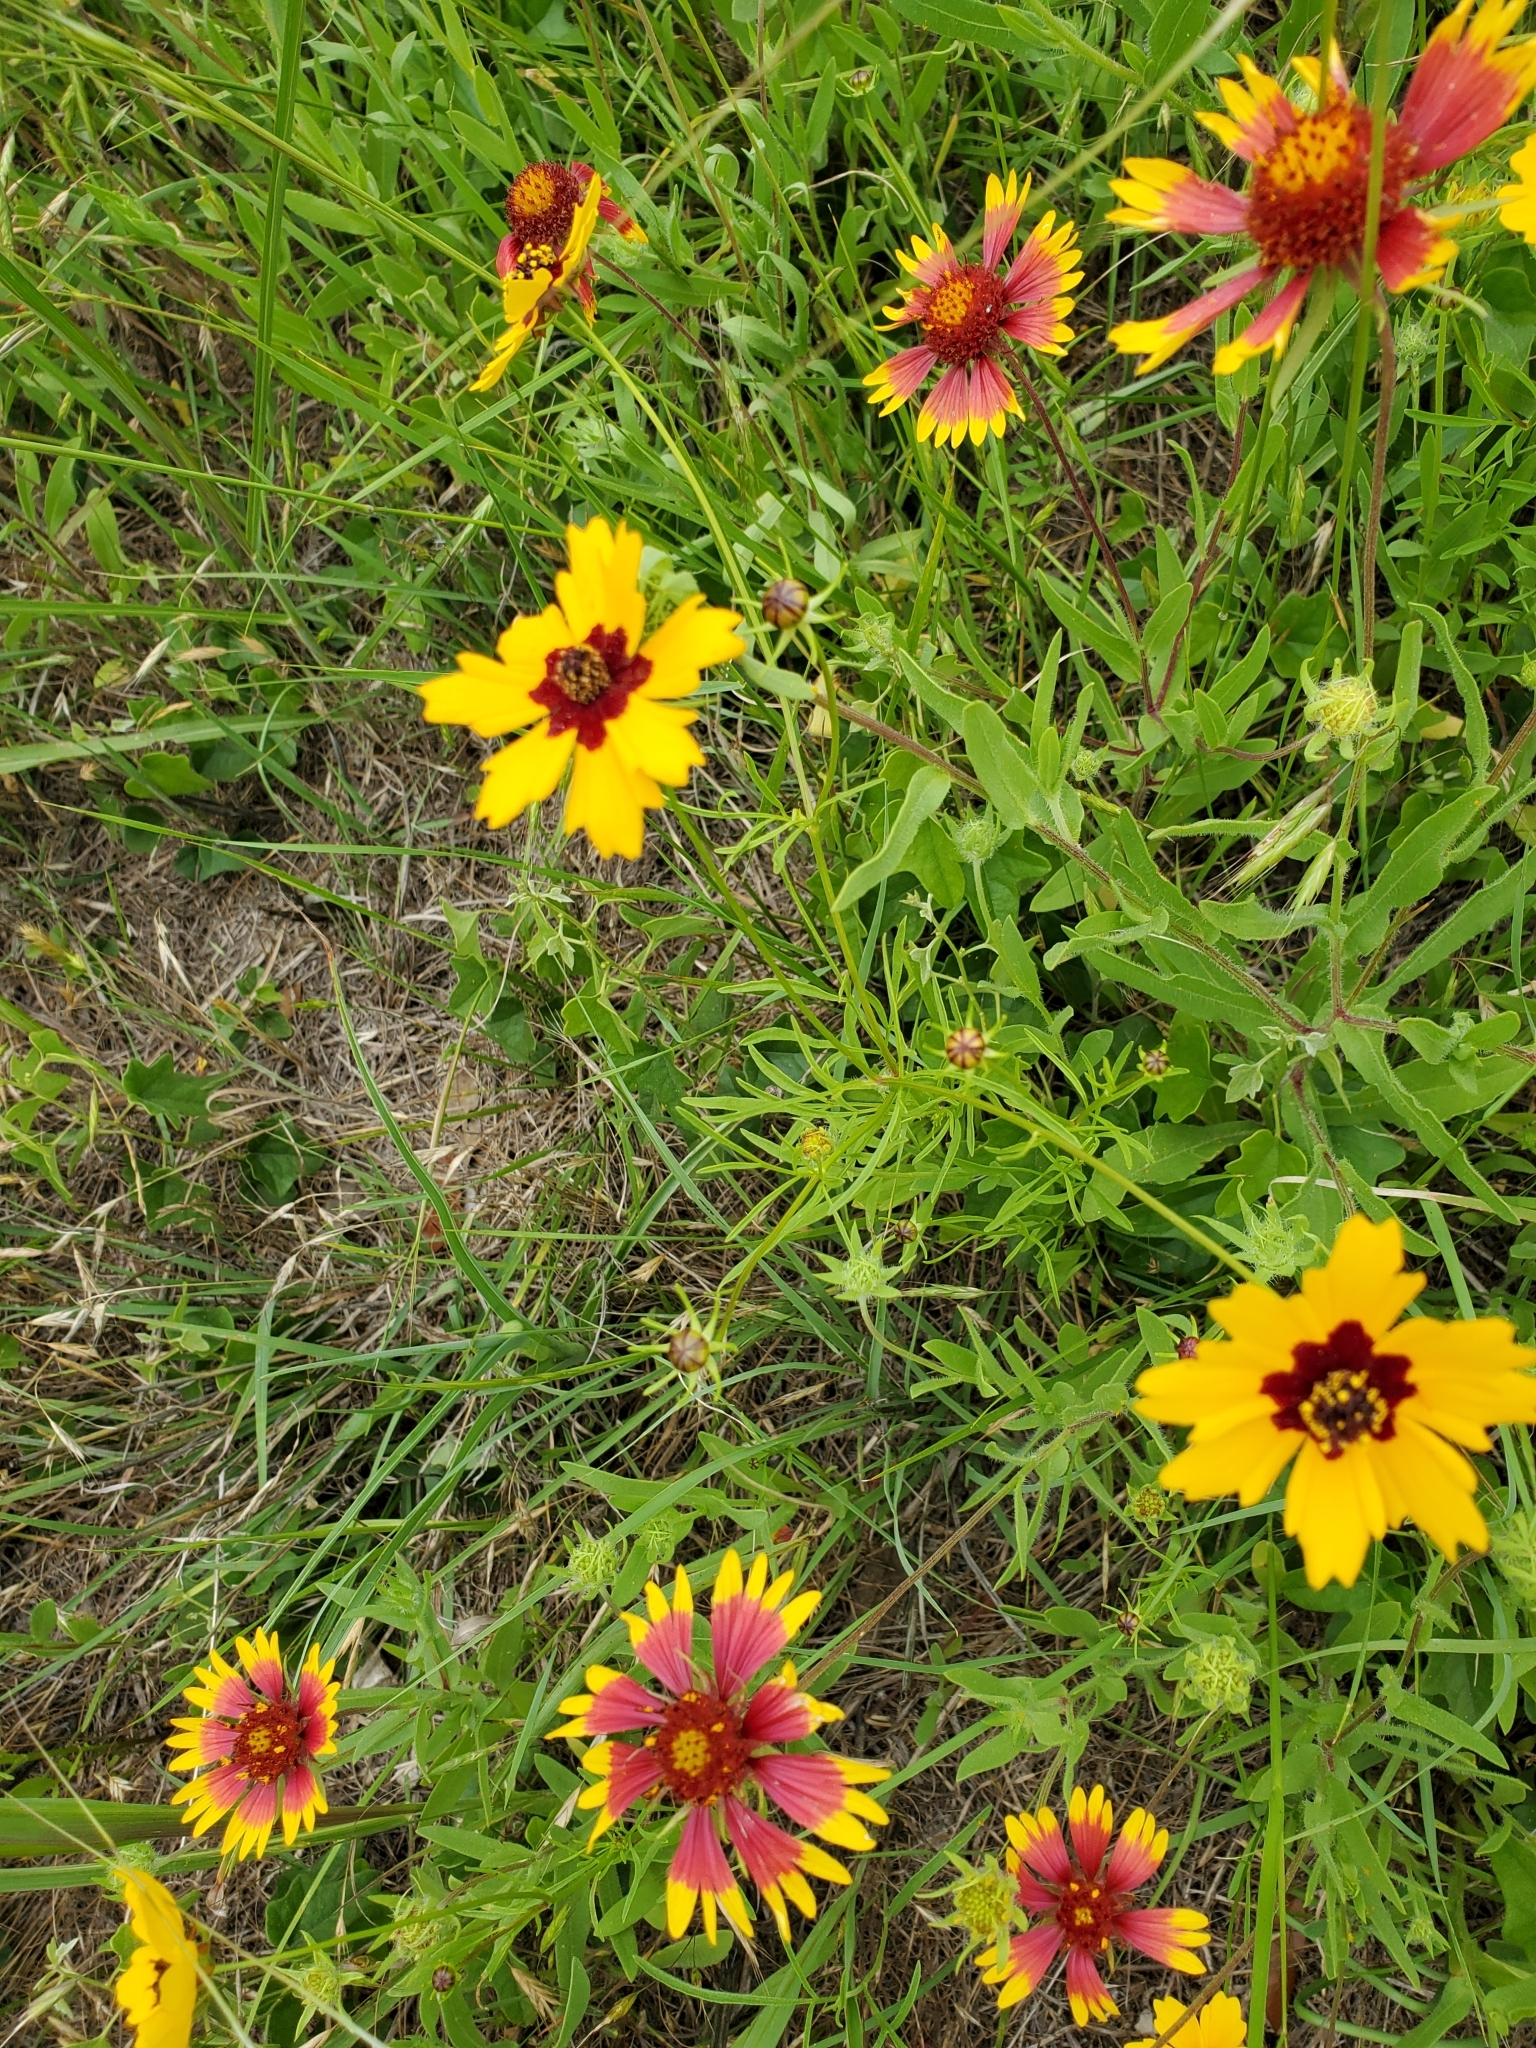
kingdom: Plantae
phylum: Tracheophyta
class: Magnoliopsida
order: Asterales
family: Asteraceae
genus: Coreopsis
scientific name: Coreopsis basalis
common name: Golden-mane coreopsis
